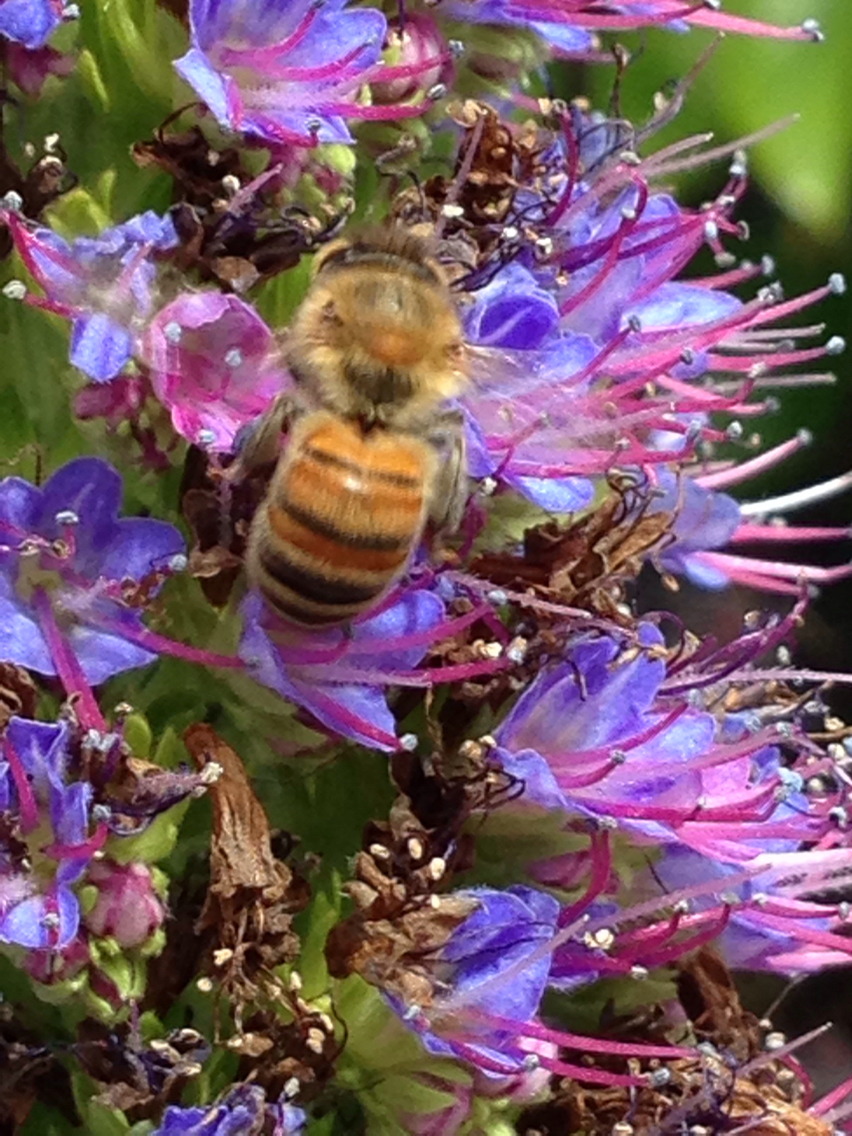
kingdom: Animalia
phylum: Arthropoda
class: Insecta
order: Hymenoptera
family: Apidae
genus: Apis
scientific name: Apis mellifera
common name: Honey bee
